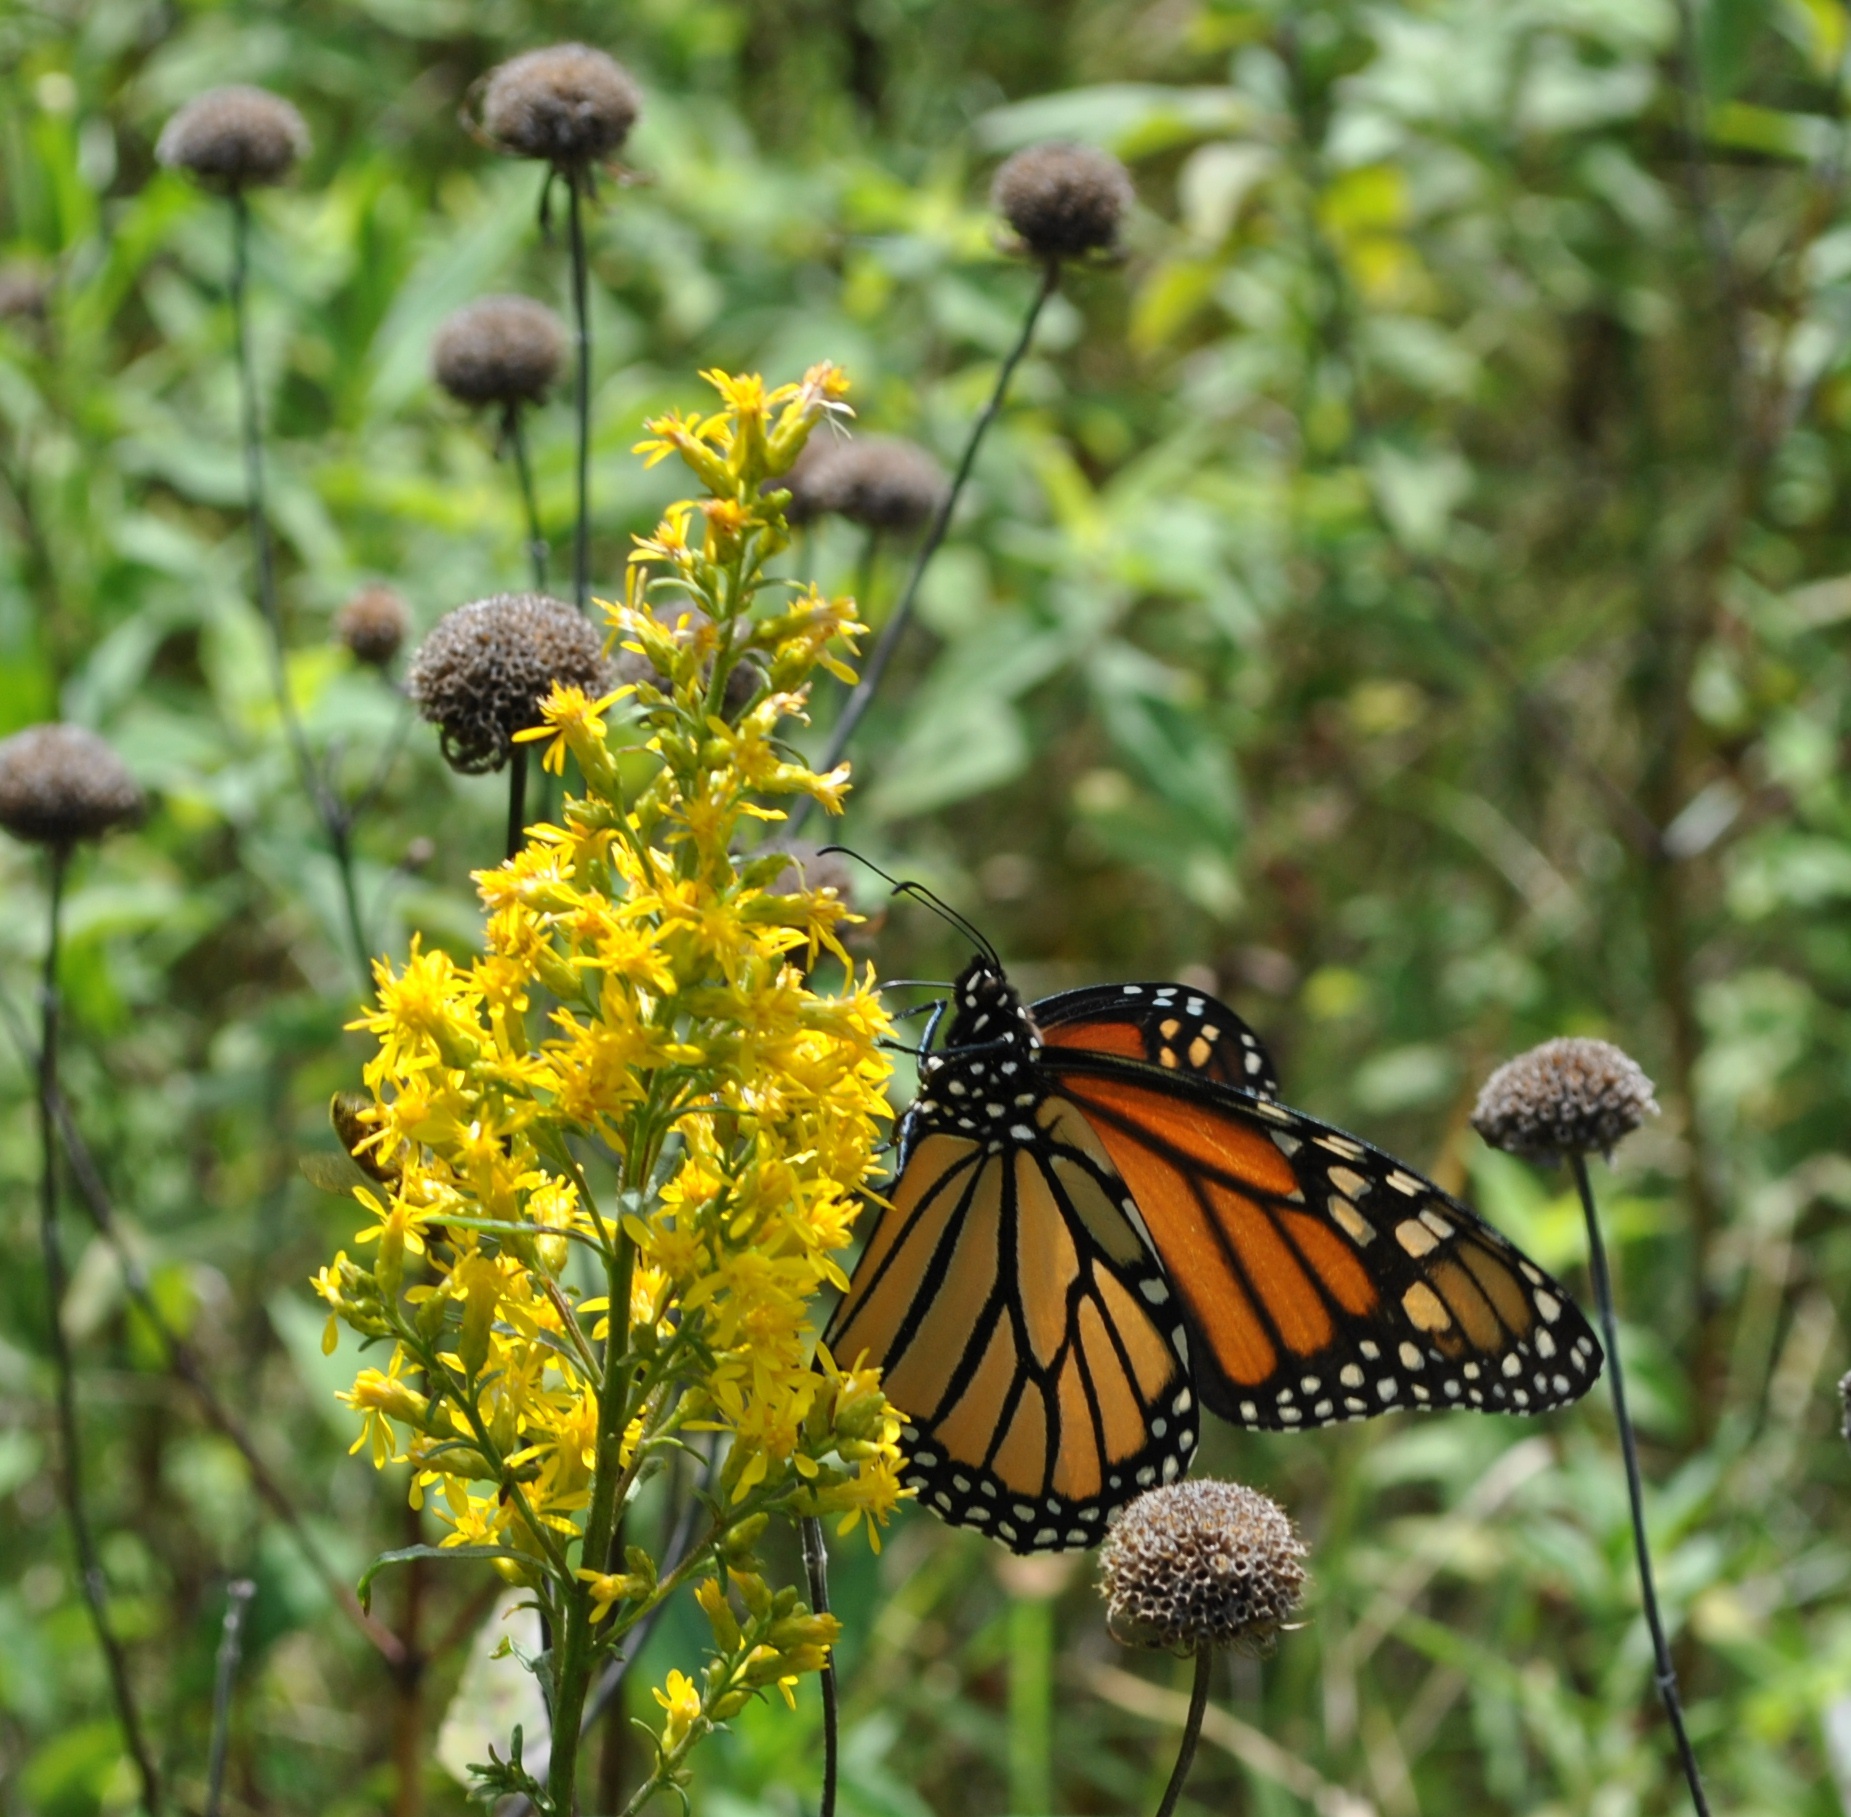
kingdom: Animalia
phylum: Arthropoda
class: Insecta
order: Lepidoptera
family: Nymphalidae
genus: Danaus
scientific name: Danaus plexippus
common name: Monarch
